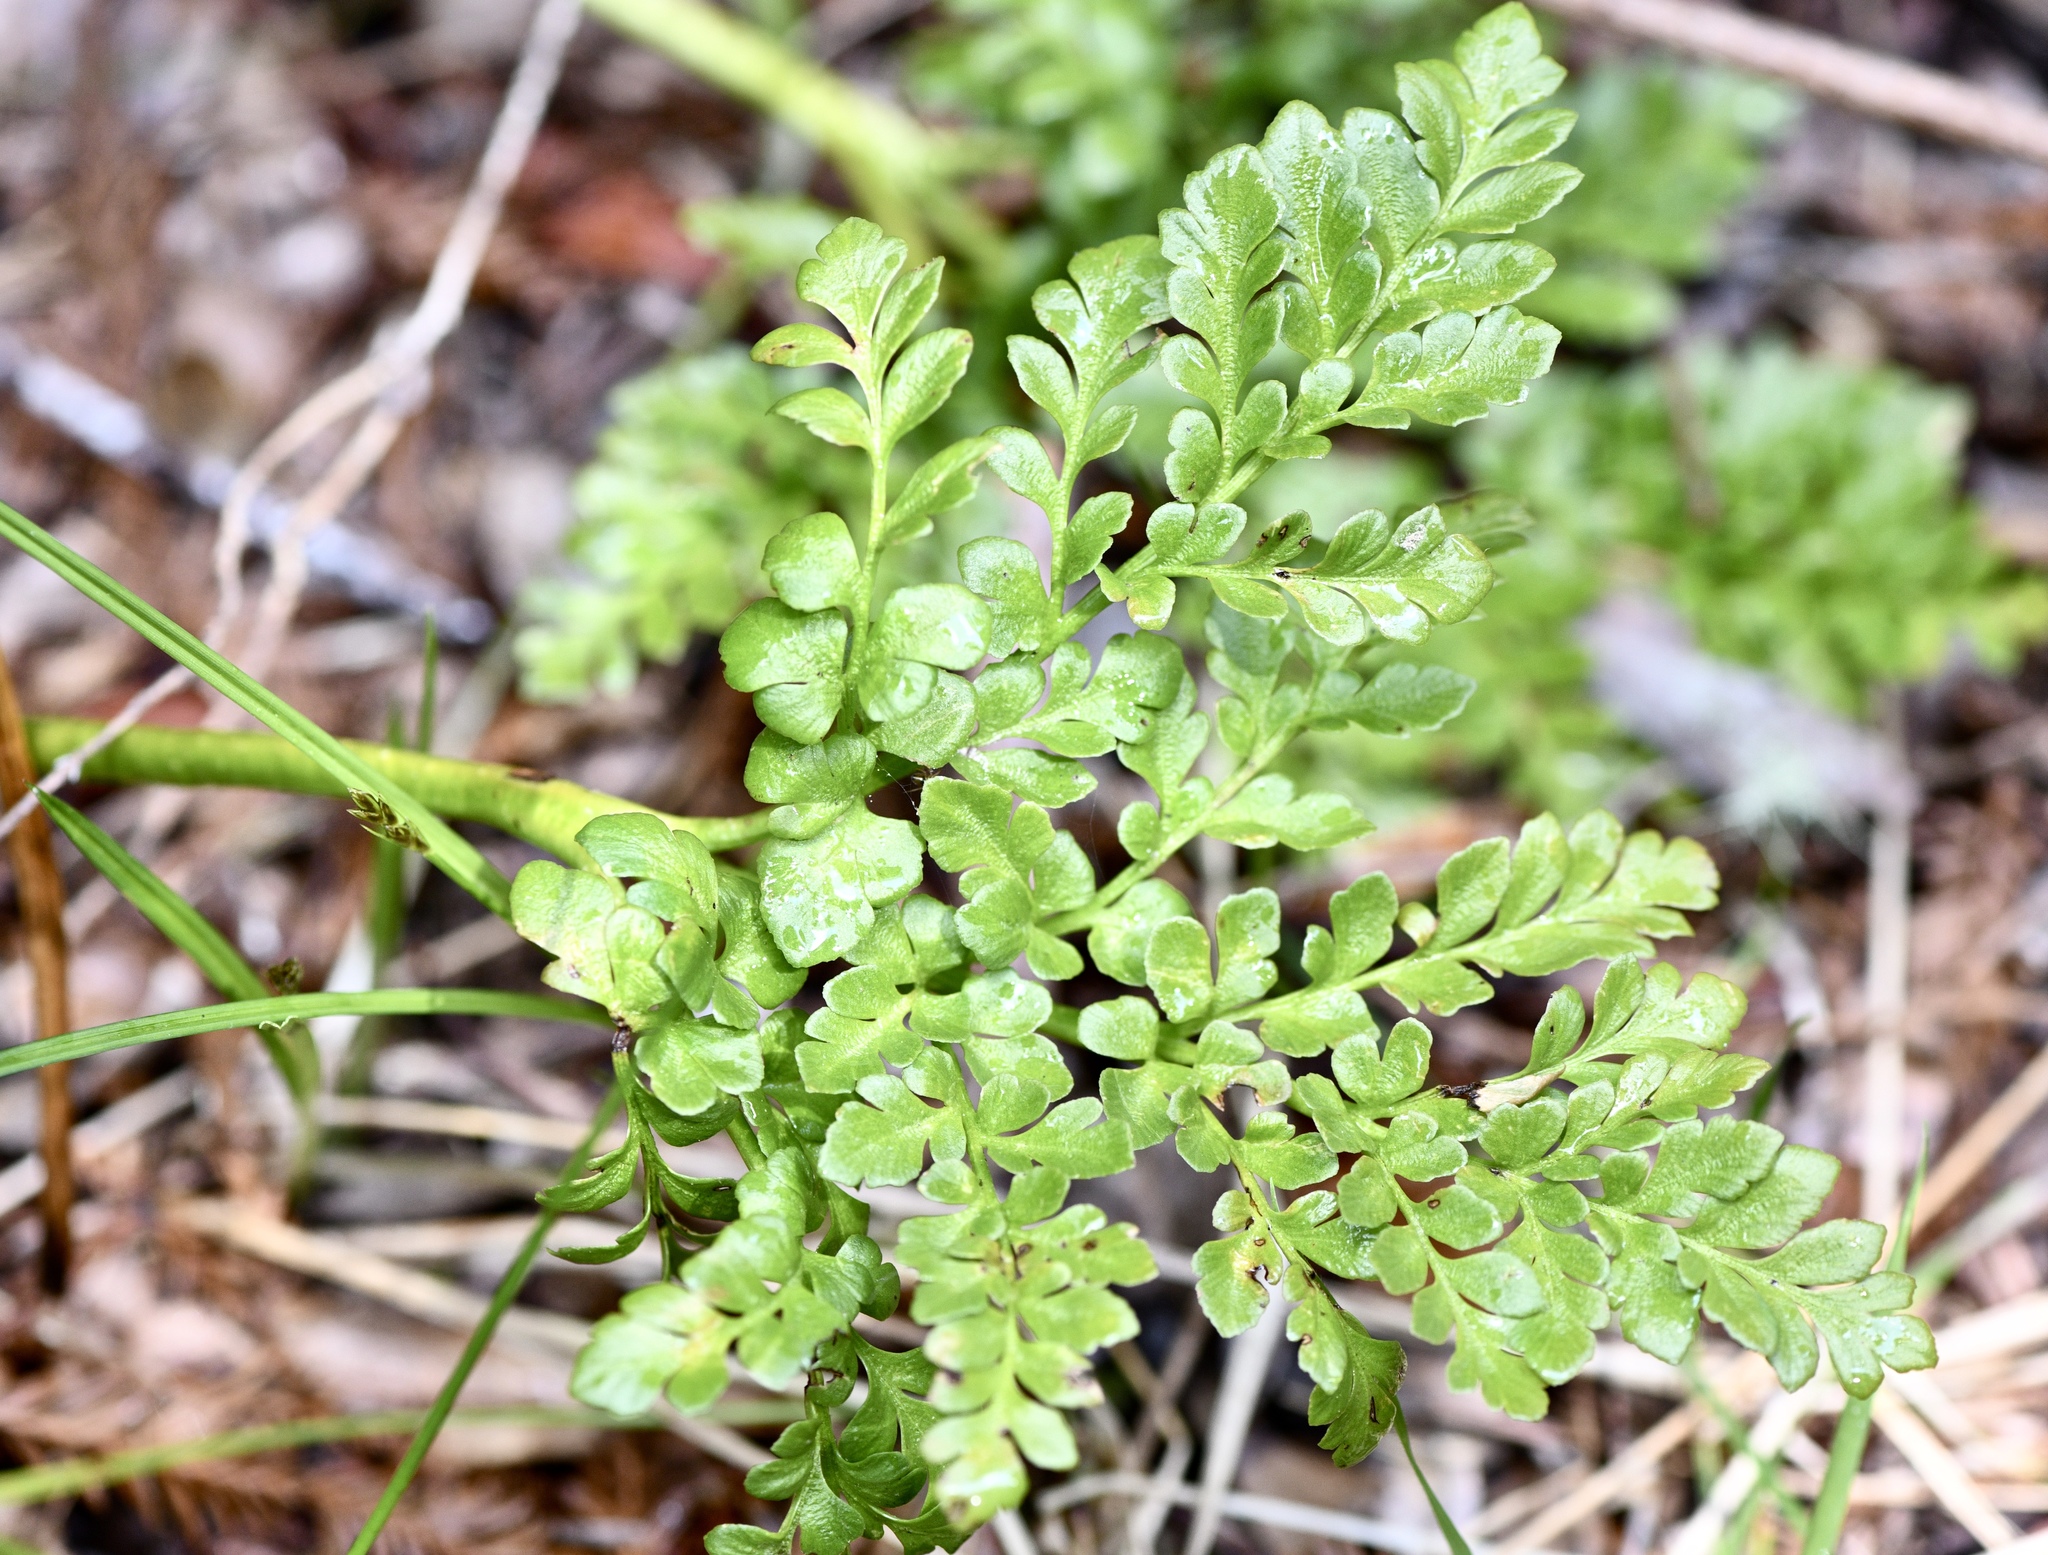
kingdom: Plantae
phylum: Tracheophyta
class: Polypodiopsida
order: Ophioglossales
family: Ophioglossaceae
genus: Sceptridium
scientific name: Sceptridium multifidum
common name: Leathery grape fern
